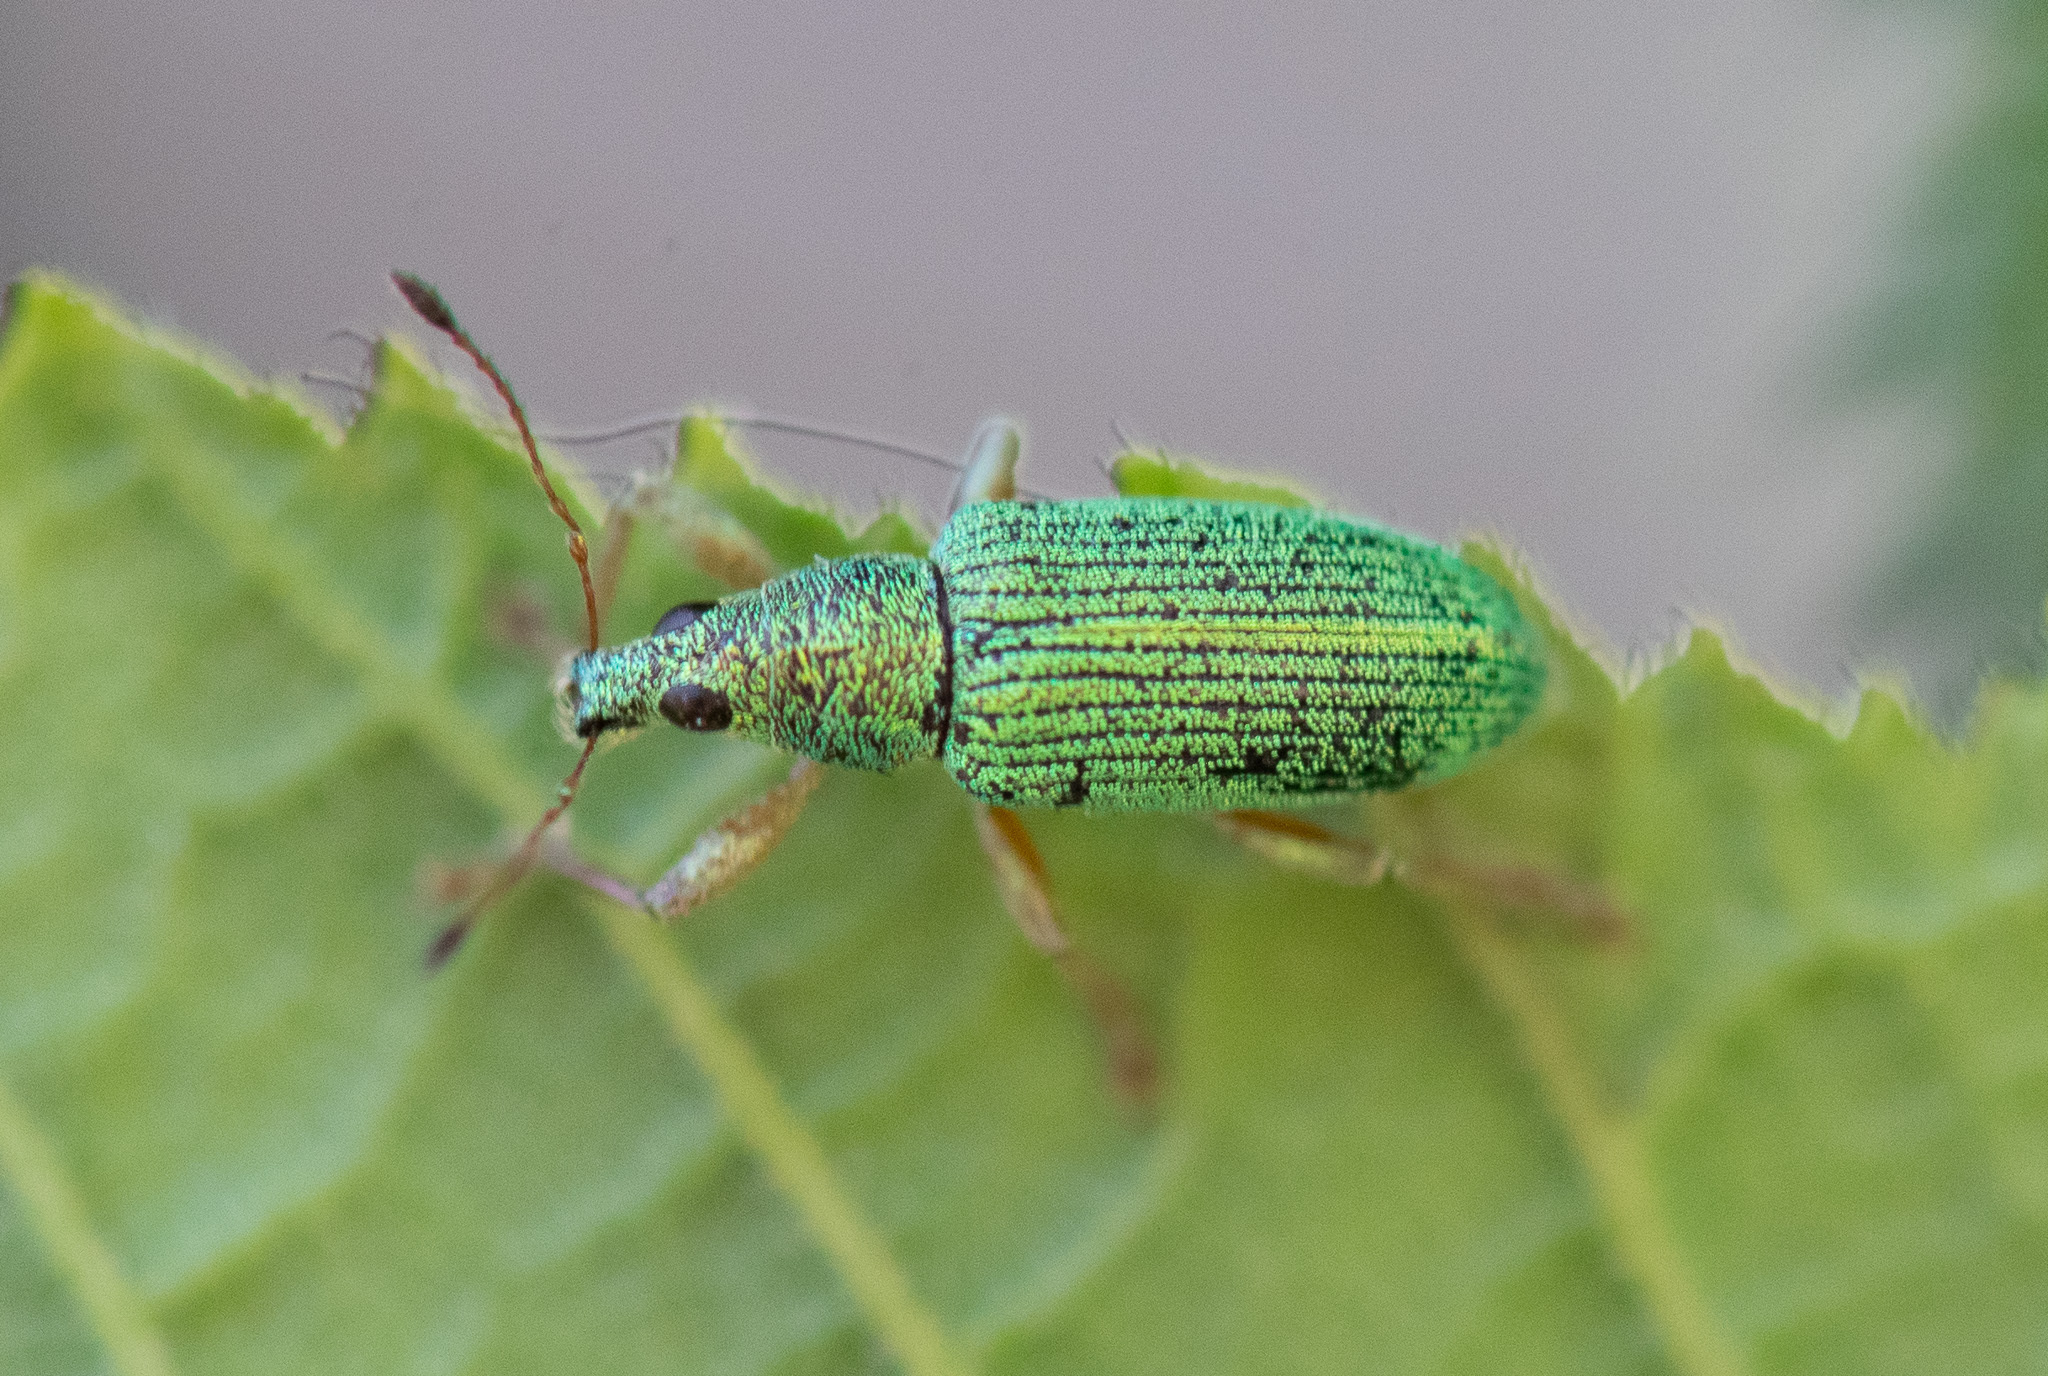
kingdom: Animalia
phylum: Arthropoda
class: Insecta
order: Coleoptera
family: Curculionidae
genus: Polydrusus
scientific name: Polydrusus formosus
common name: Weevil
